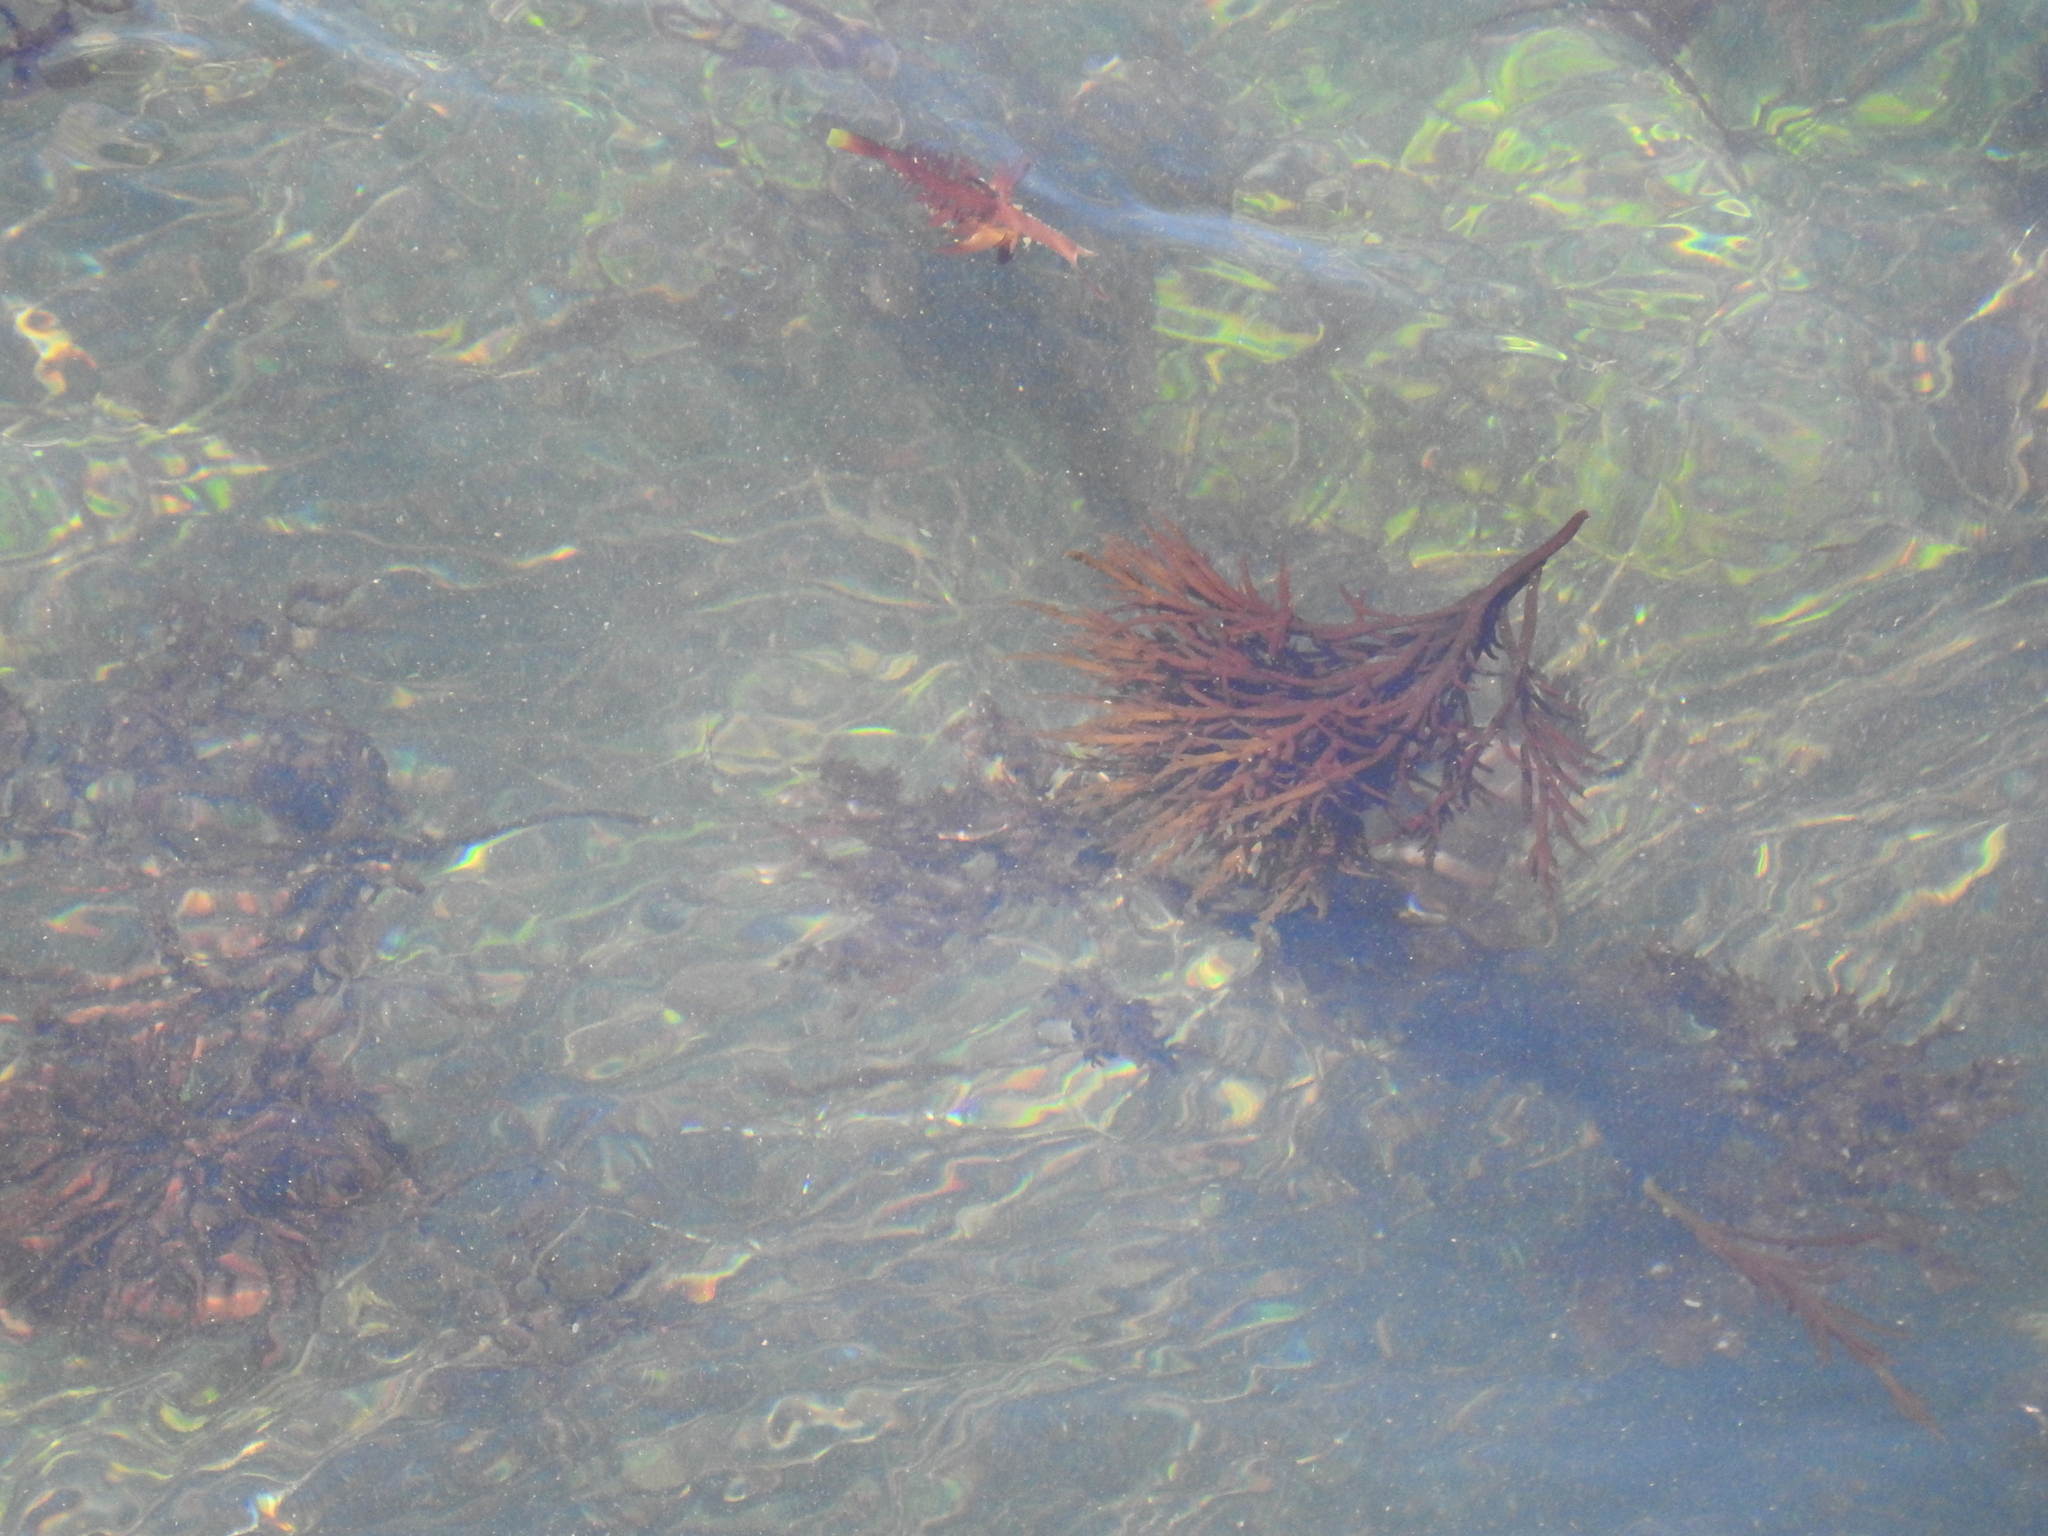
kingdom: Plantae
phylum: Rhodophyta
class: Florideophyceae
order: Gigartinales
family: Solieriaceae
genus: Sarcodiotheca
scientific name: Sarcodiotheca gaudichaudii
